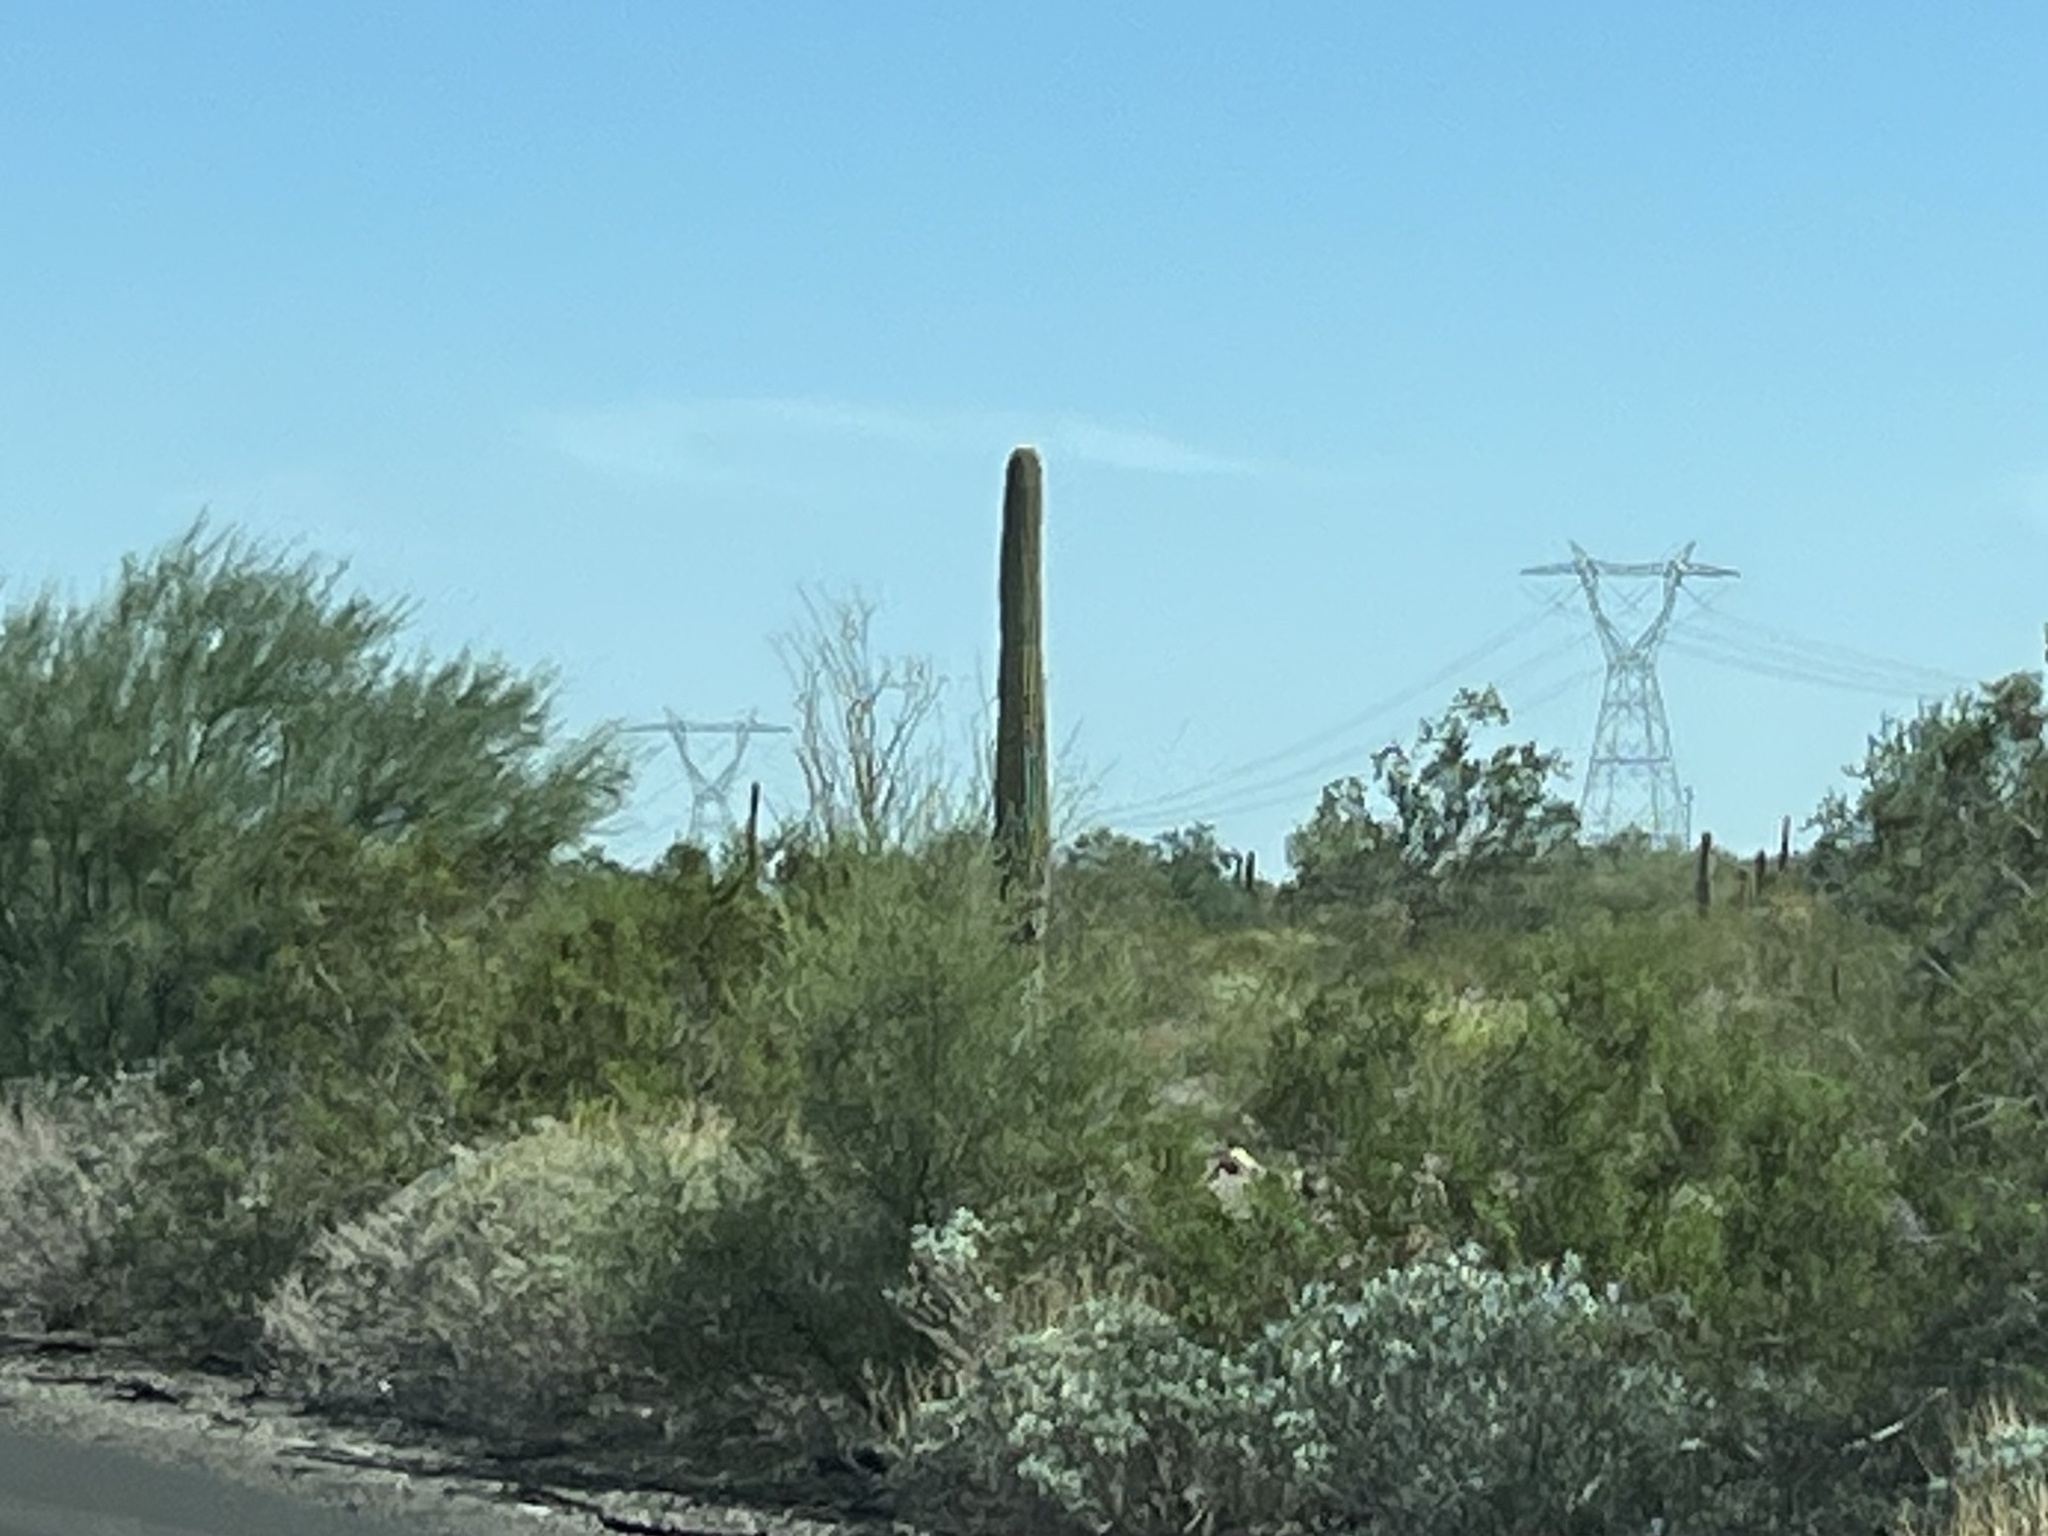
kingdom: Plantae
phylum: Tracheophyta
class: Magnoliopsida
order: Caryophyllales
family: Cactaceae
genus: Carnegiea
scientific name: Carnegiea gigantea
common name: Saguaro
